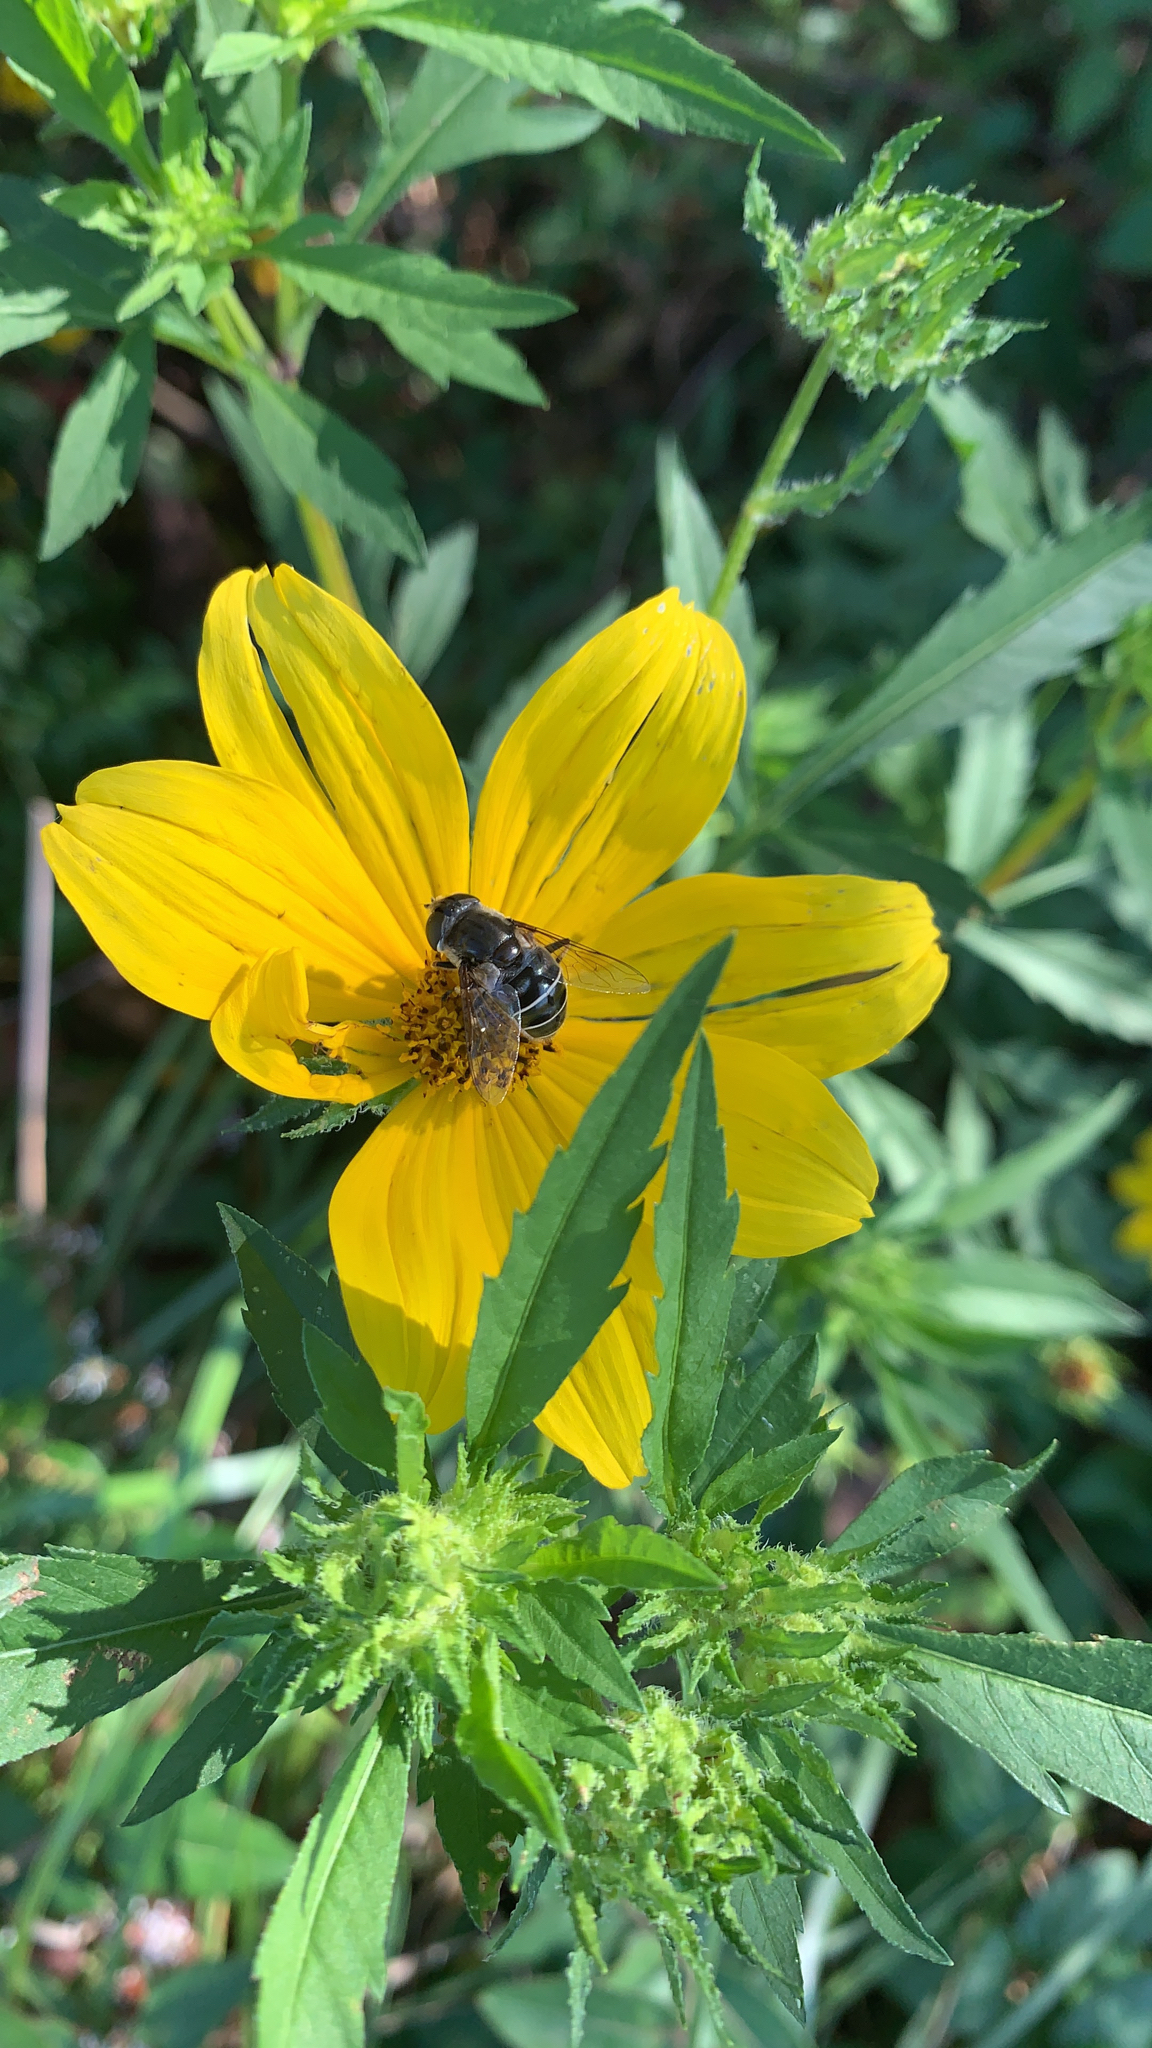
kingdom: Animalia
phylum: Arthropoda
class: Insecta
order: Diptera
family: Syrphidae
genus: Eristalis
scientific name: Eristalis dimidiata
